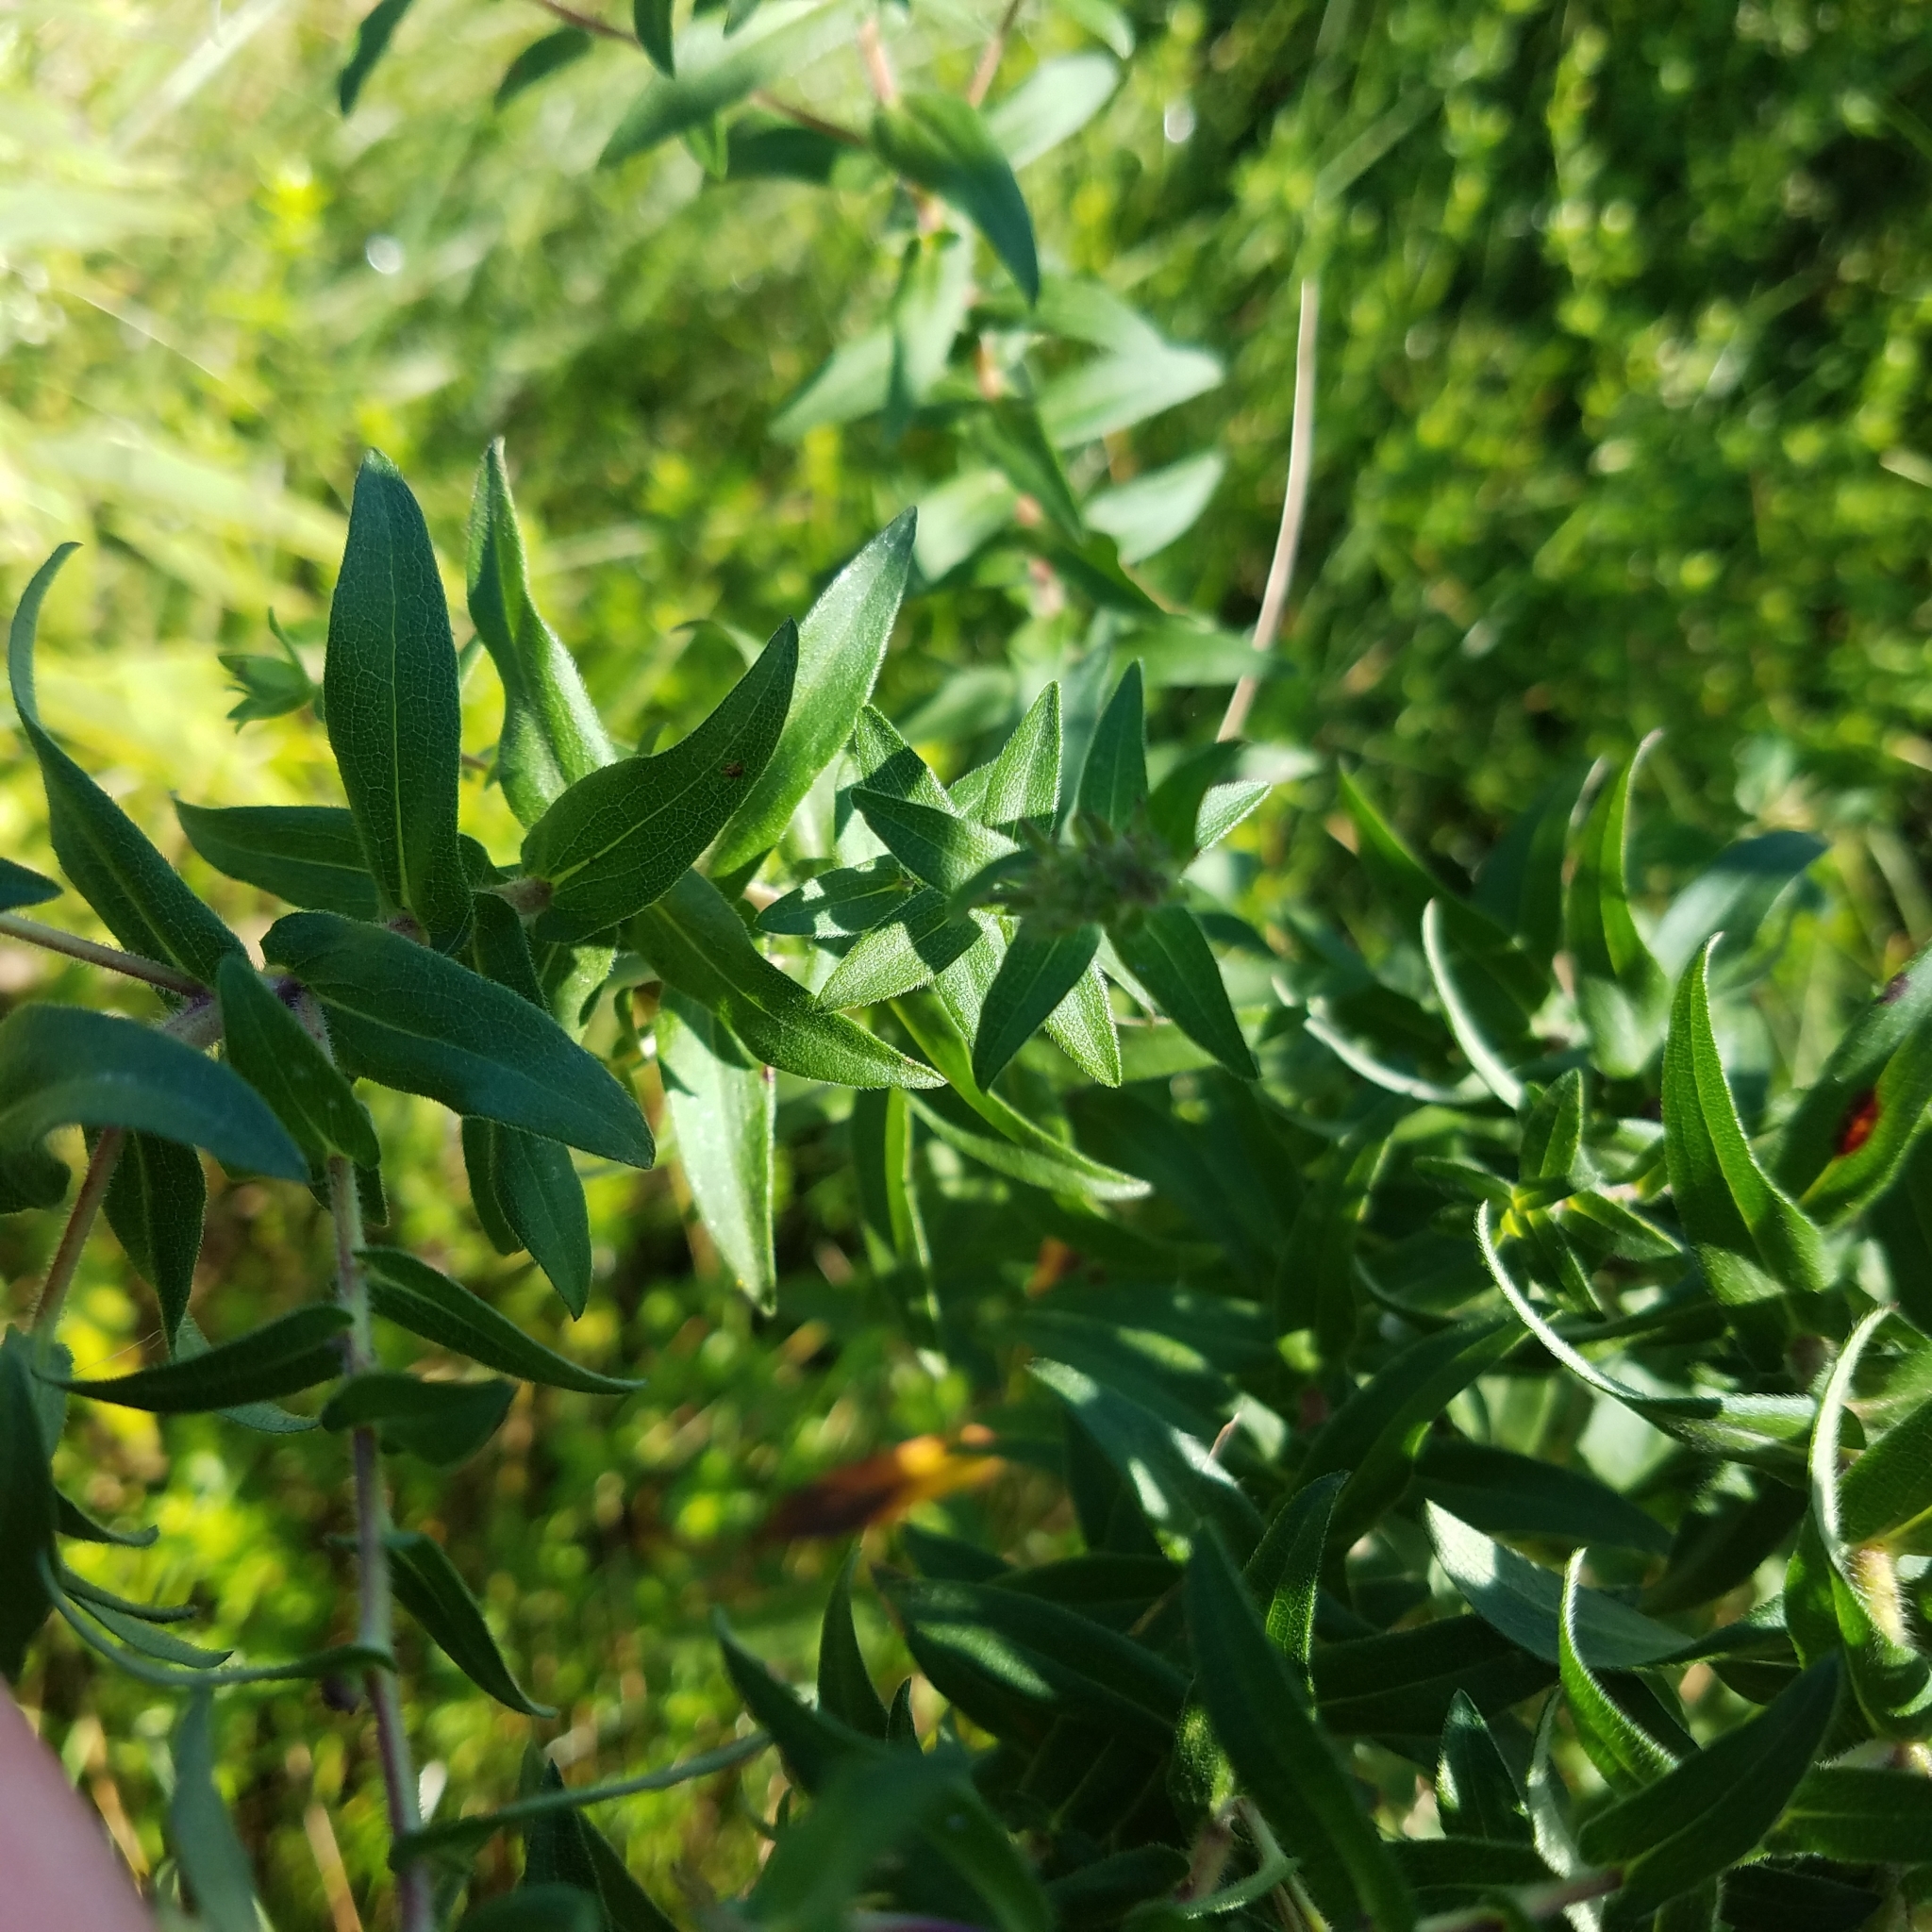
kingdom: Plantae
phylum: Tracheophyta
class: Magnoliopsida
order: Asterales
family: Asteraceae
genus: Symphyotrichum
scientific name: Symphyotrichum novae-angliae
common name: Michaelmas daisy
